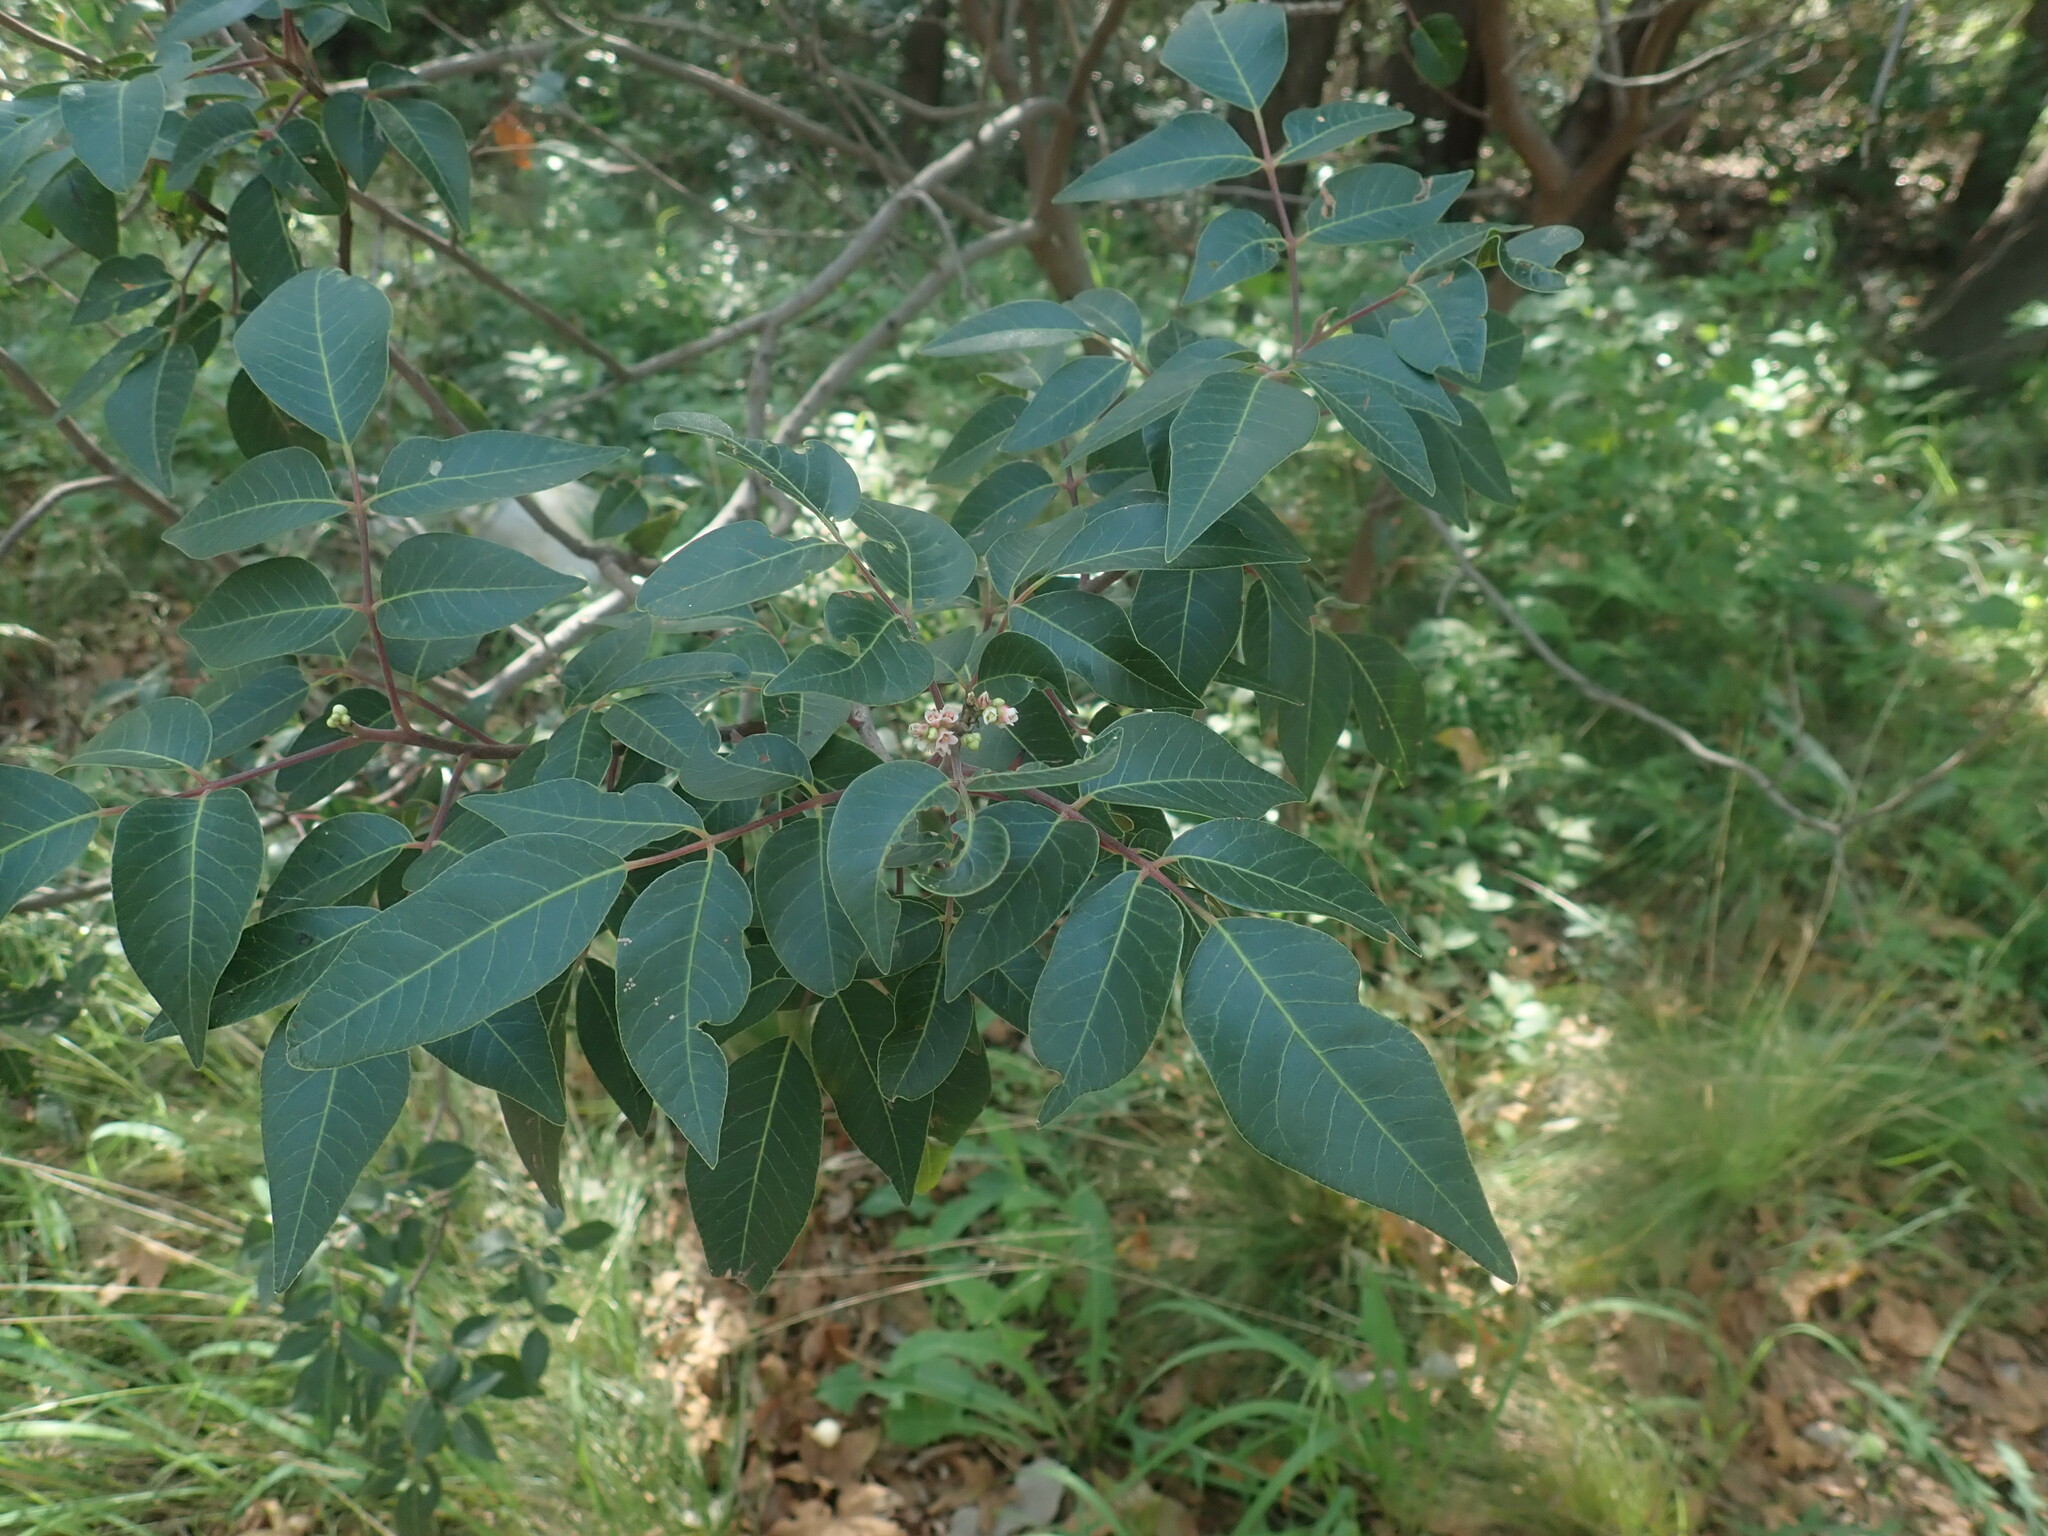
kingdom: Plantae
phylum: Tracheophyta
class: Magnoliopsida
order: Sapindales
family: Anacardiaceae
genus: Rhus
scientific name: Rhus virens
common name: Evergreen sumac
